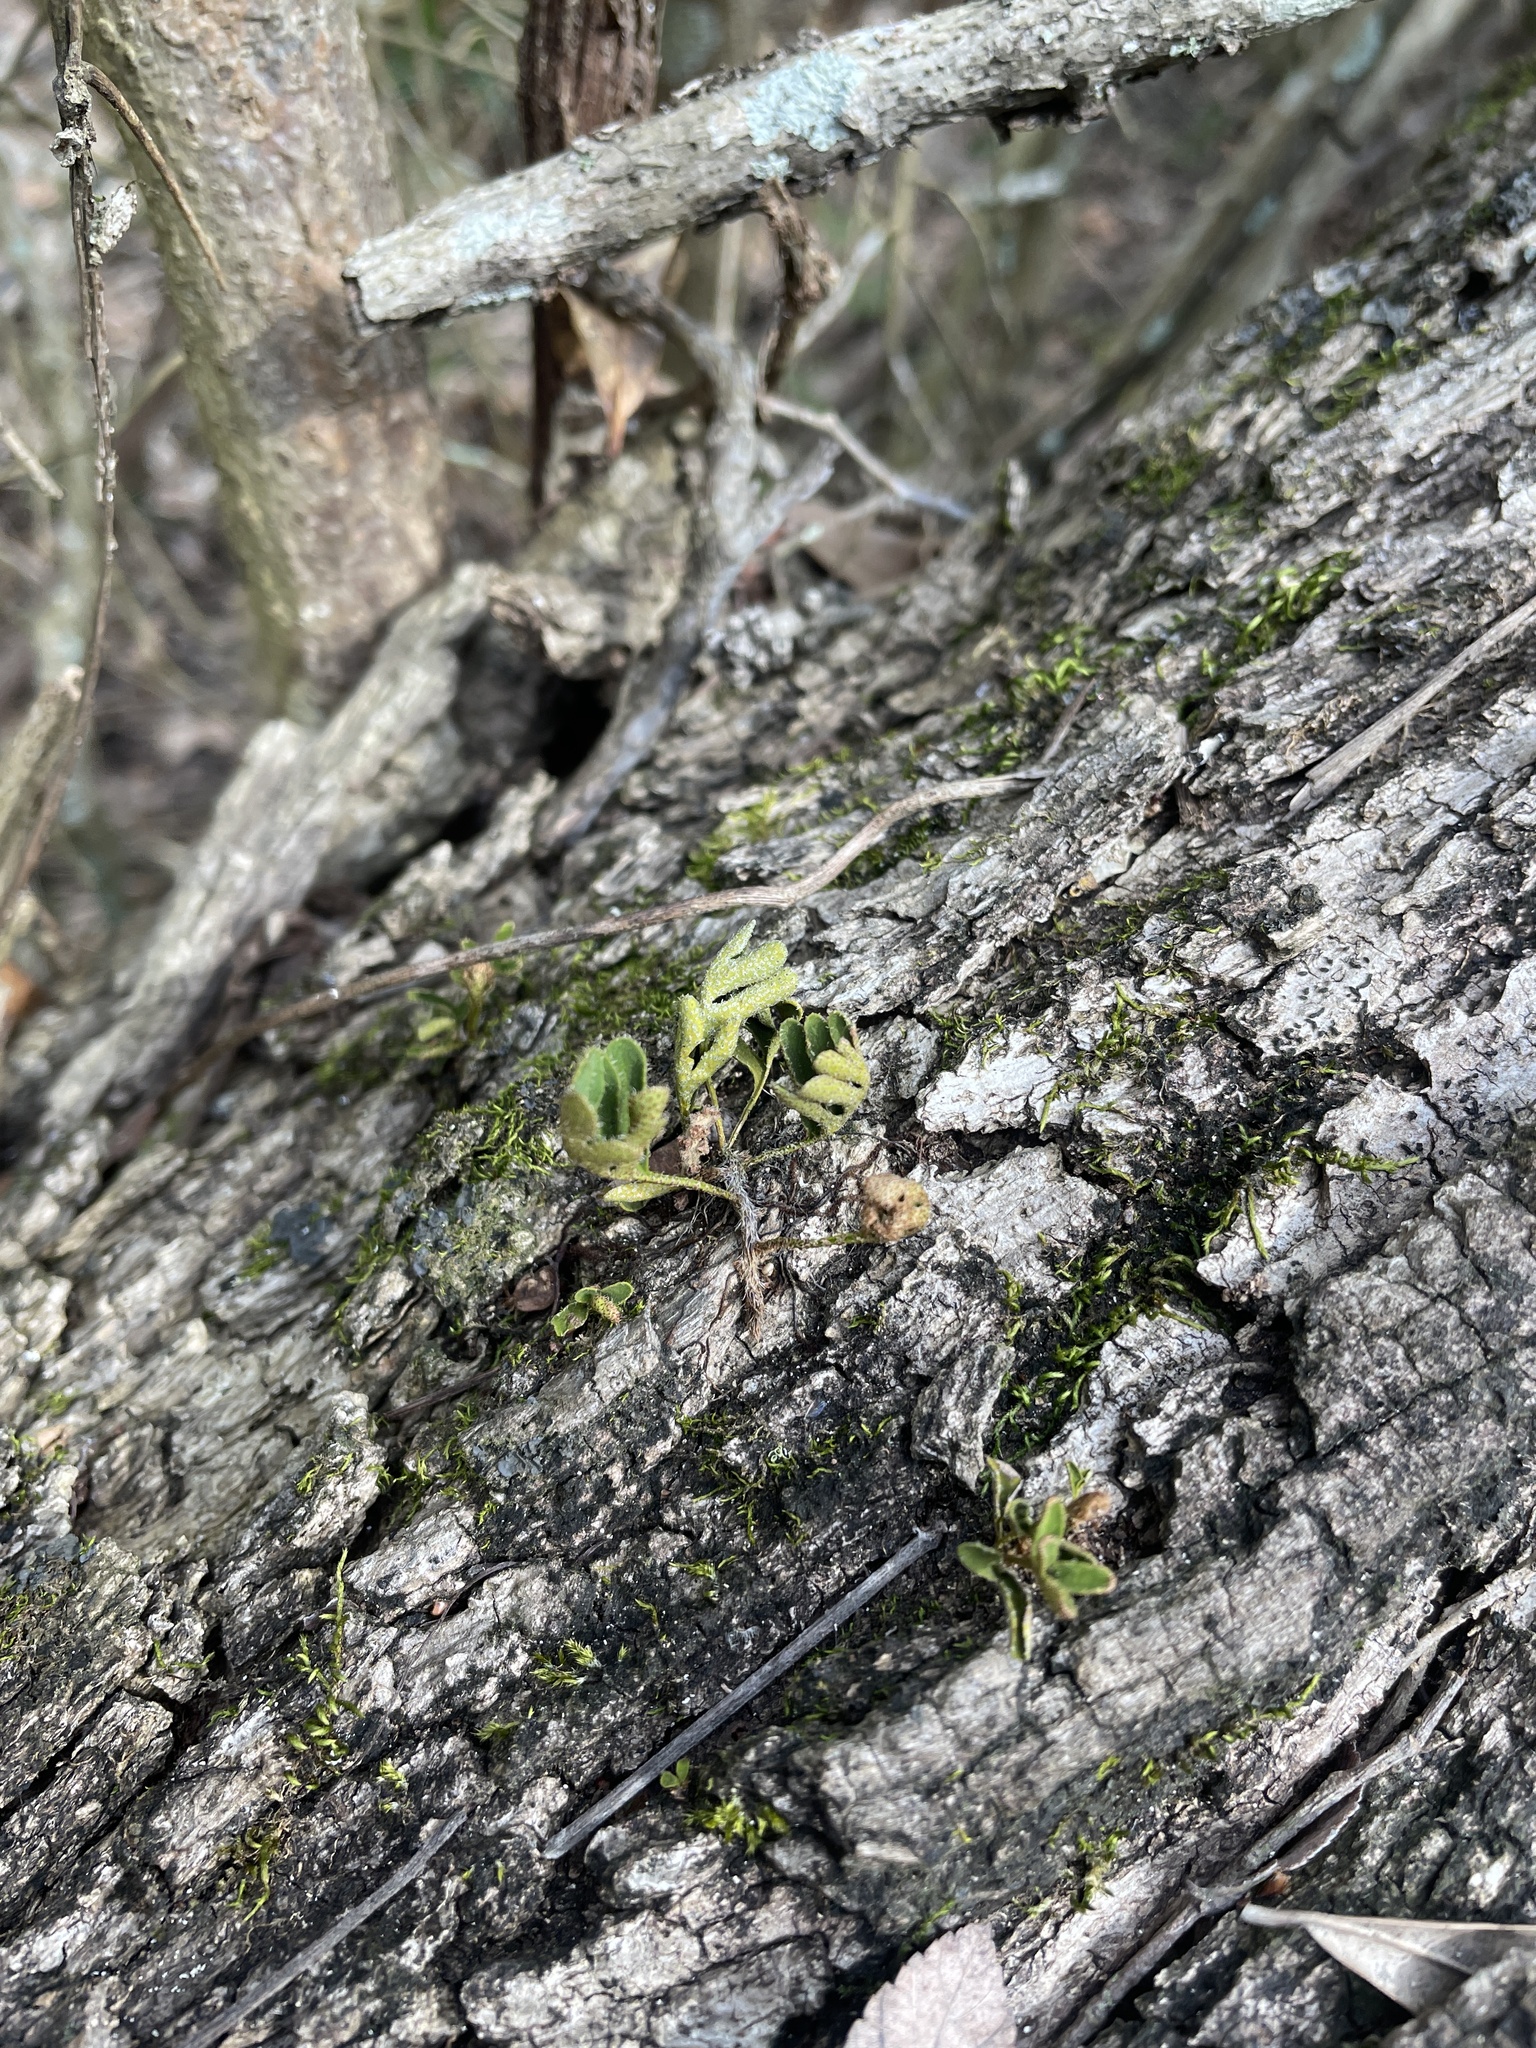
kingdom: Plantae
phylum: Tracheophyta
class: Polypodiopsida
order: Polypodiales
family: Polypodiaceae
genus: Pleopeltis
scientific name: Pleopeltis michauxiana
